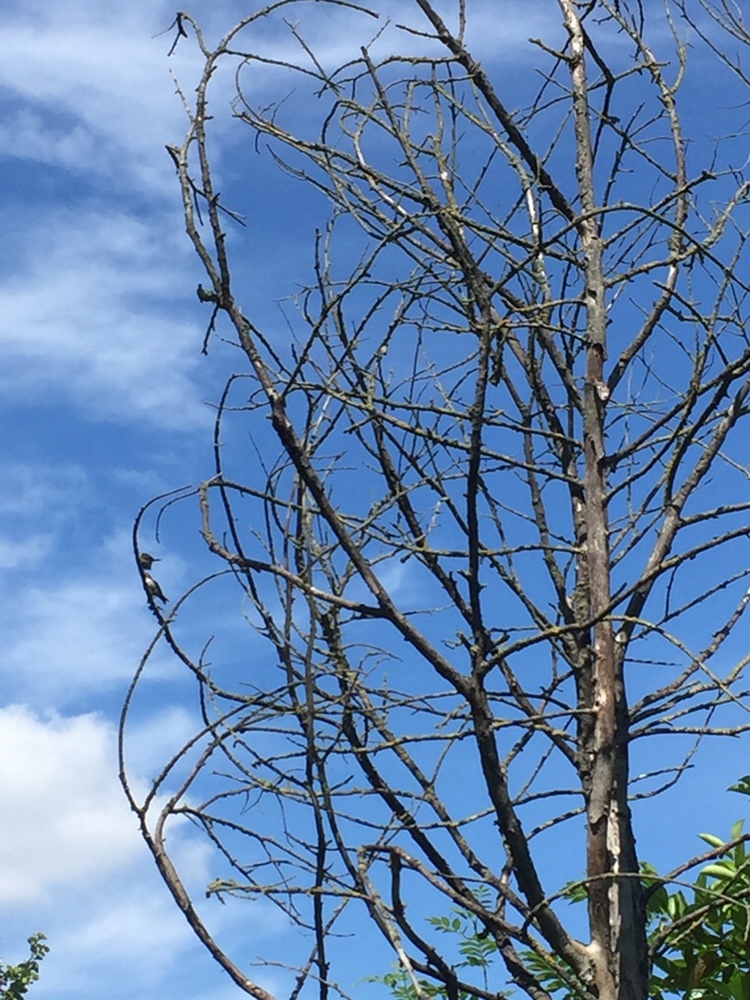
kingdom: Animalia
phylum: Chordata
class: Aves
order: Passeriformes
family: Aegithalidae
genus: Aegithalos
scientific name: Aegithalos caudatus
